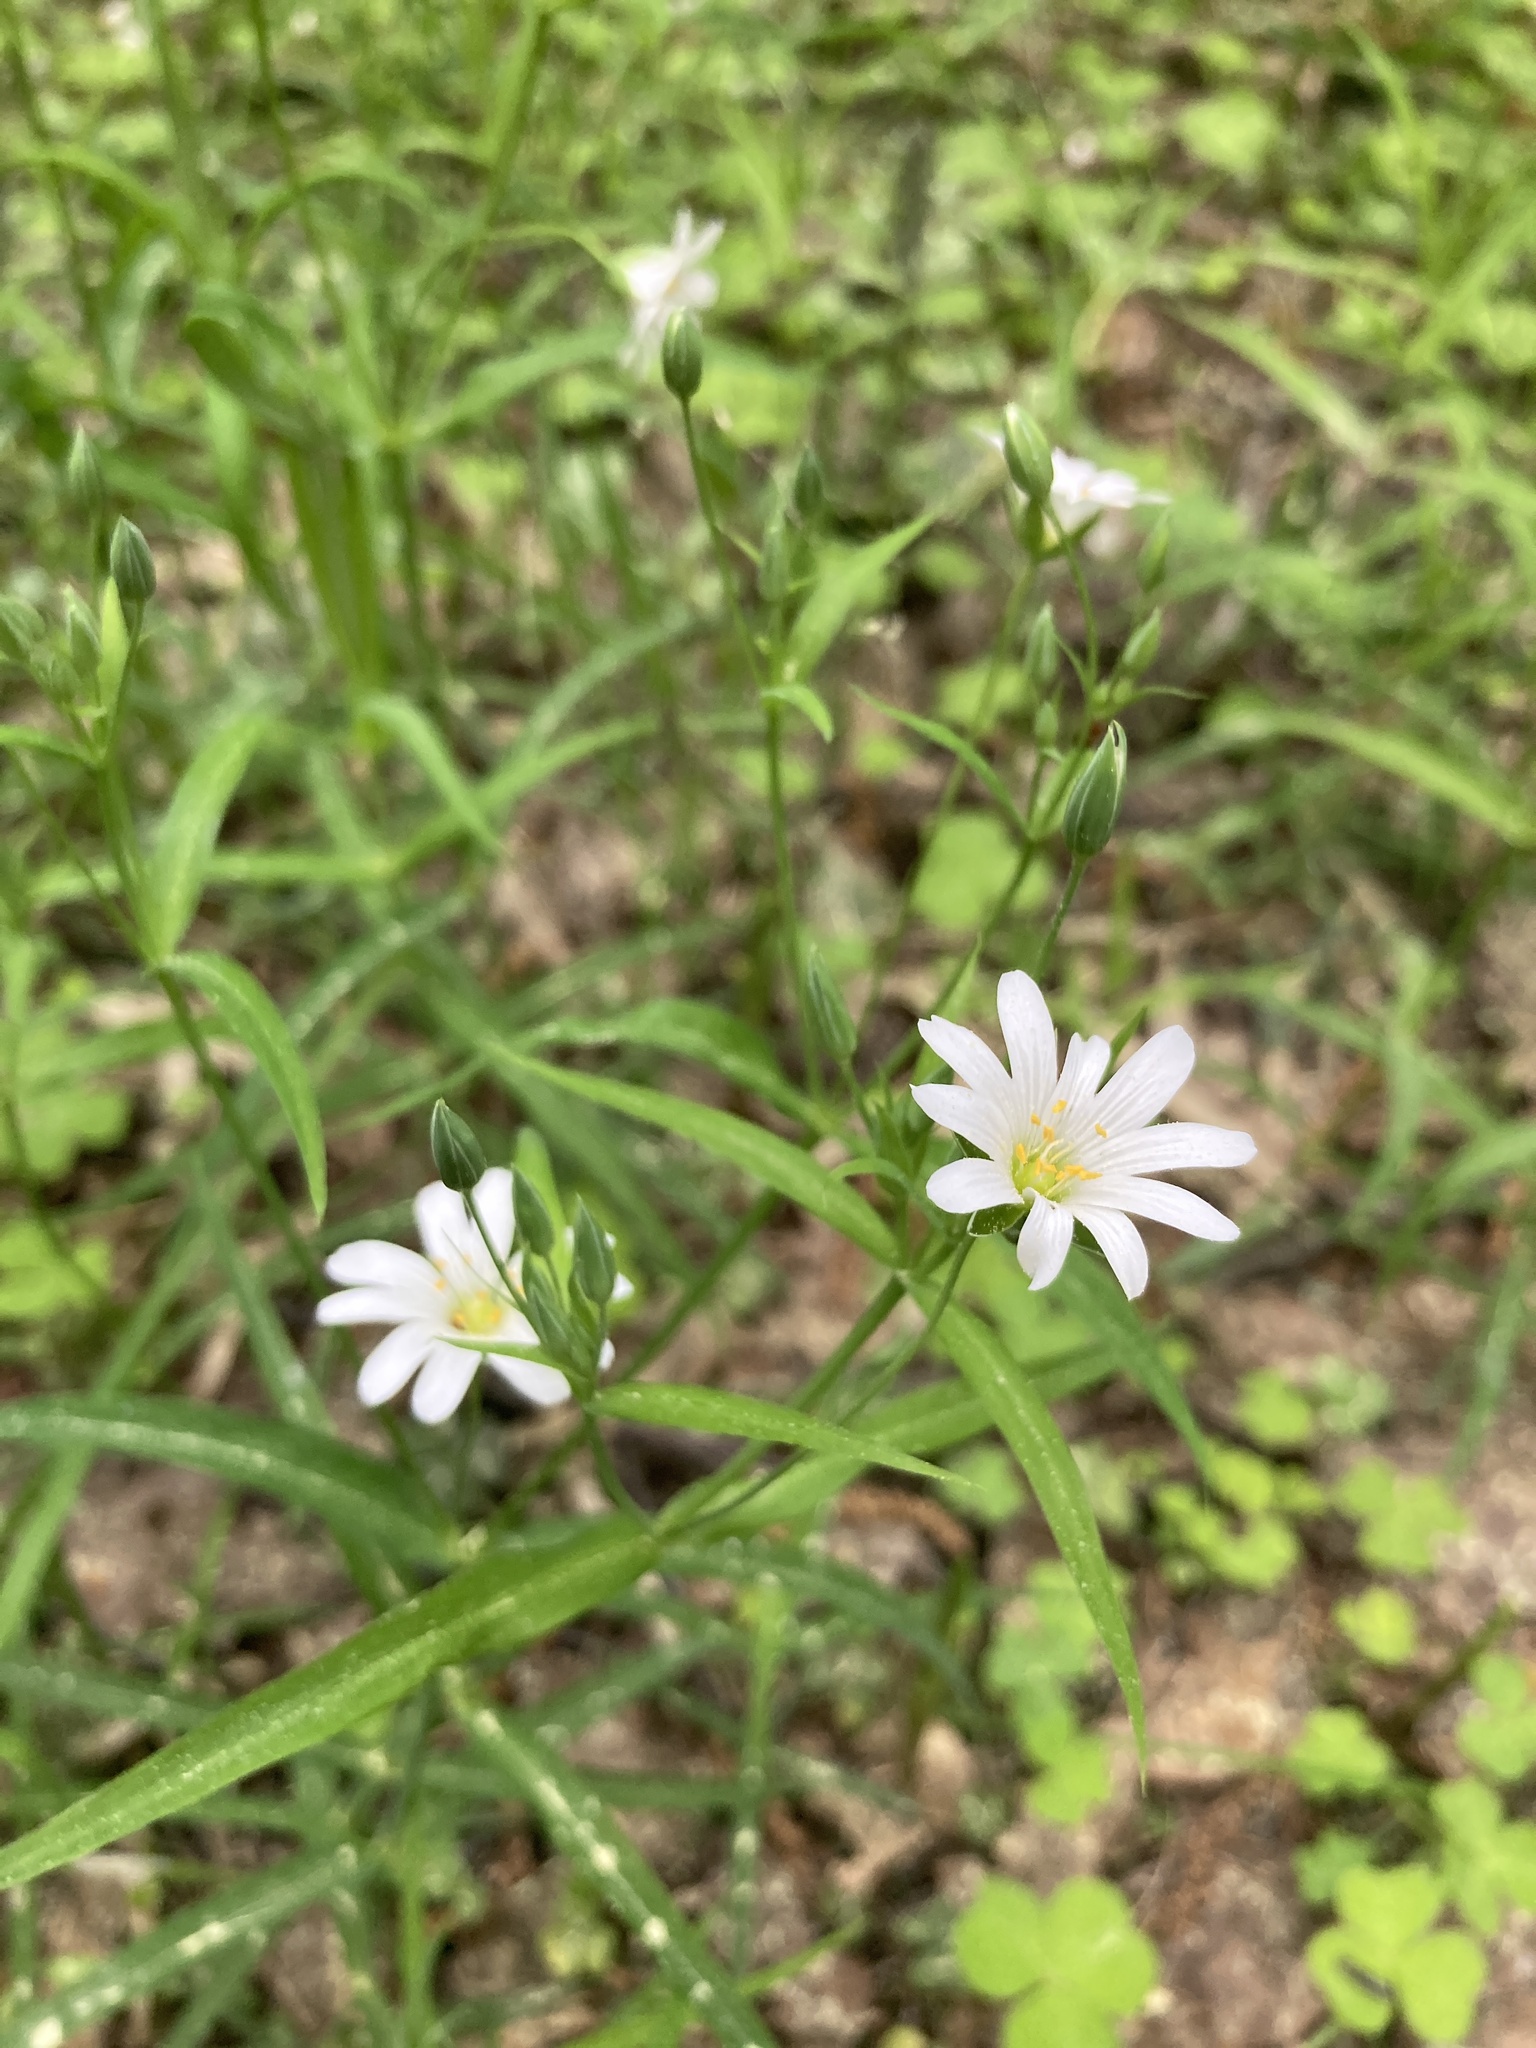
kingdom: Plantae
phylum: Tracheophyta
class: Magnoliopsida
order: Caryophyllales
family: Caryophyllaceae
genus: Rabelera
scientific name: Rabelera holostea
